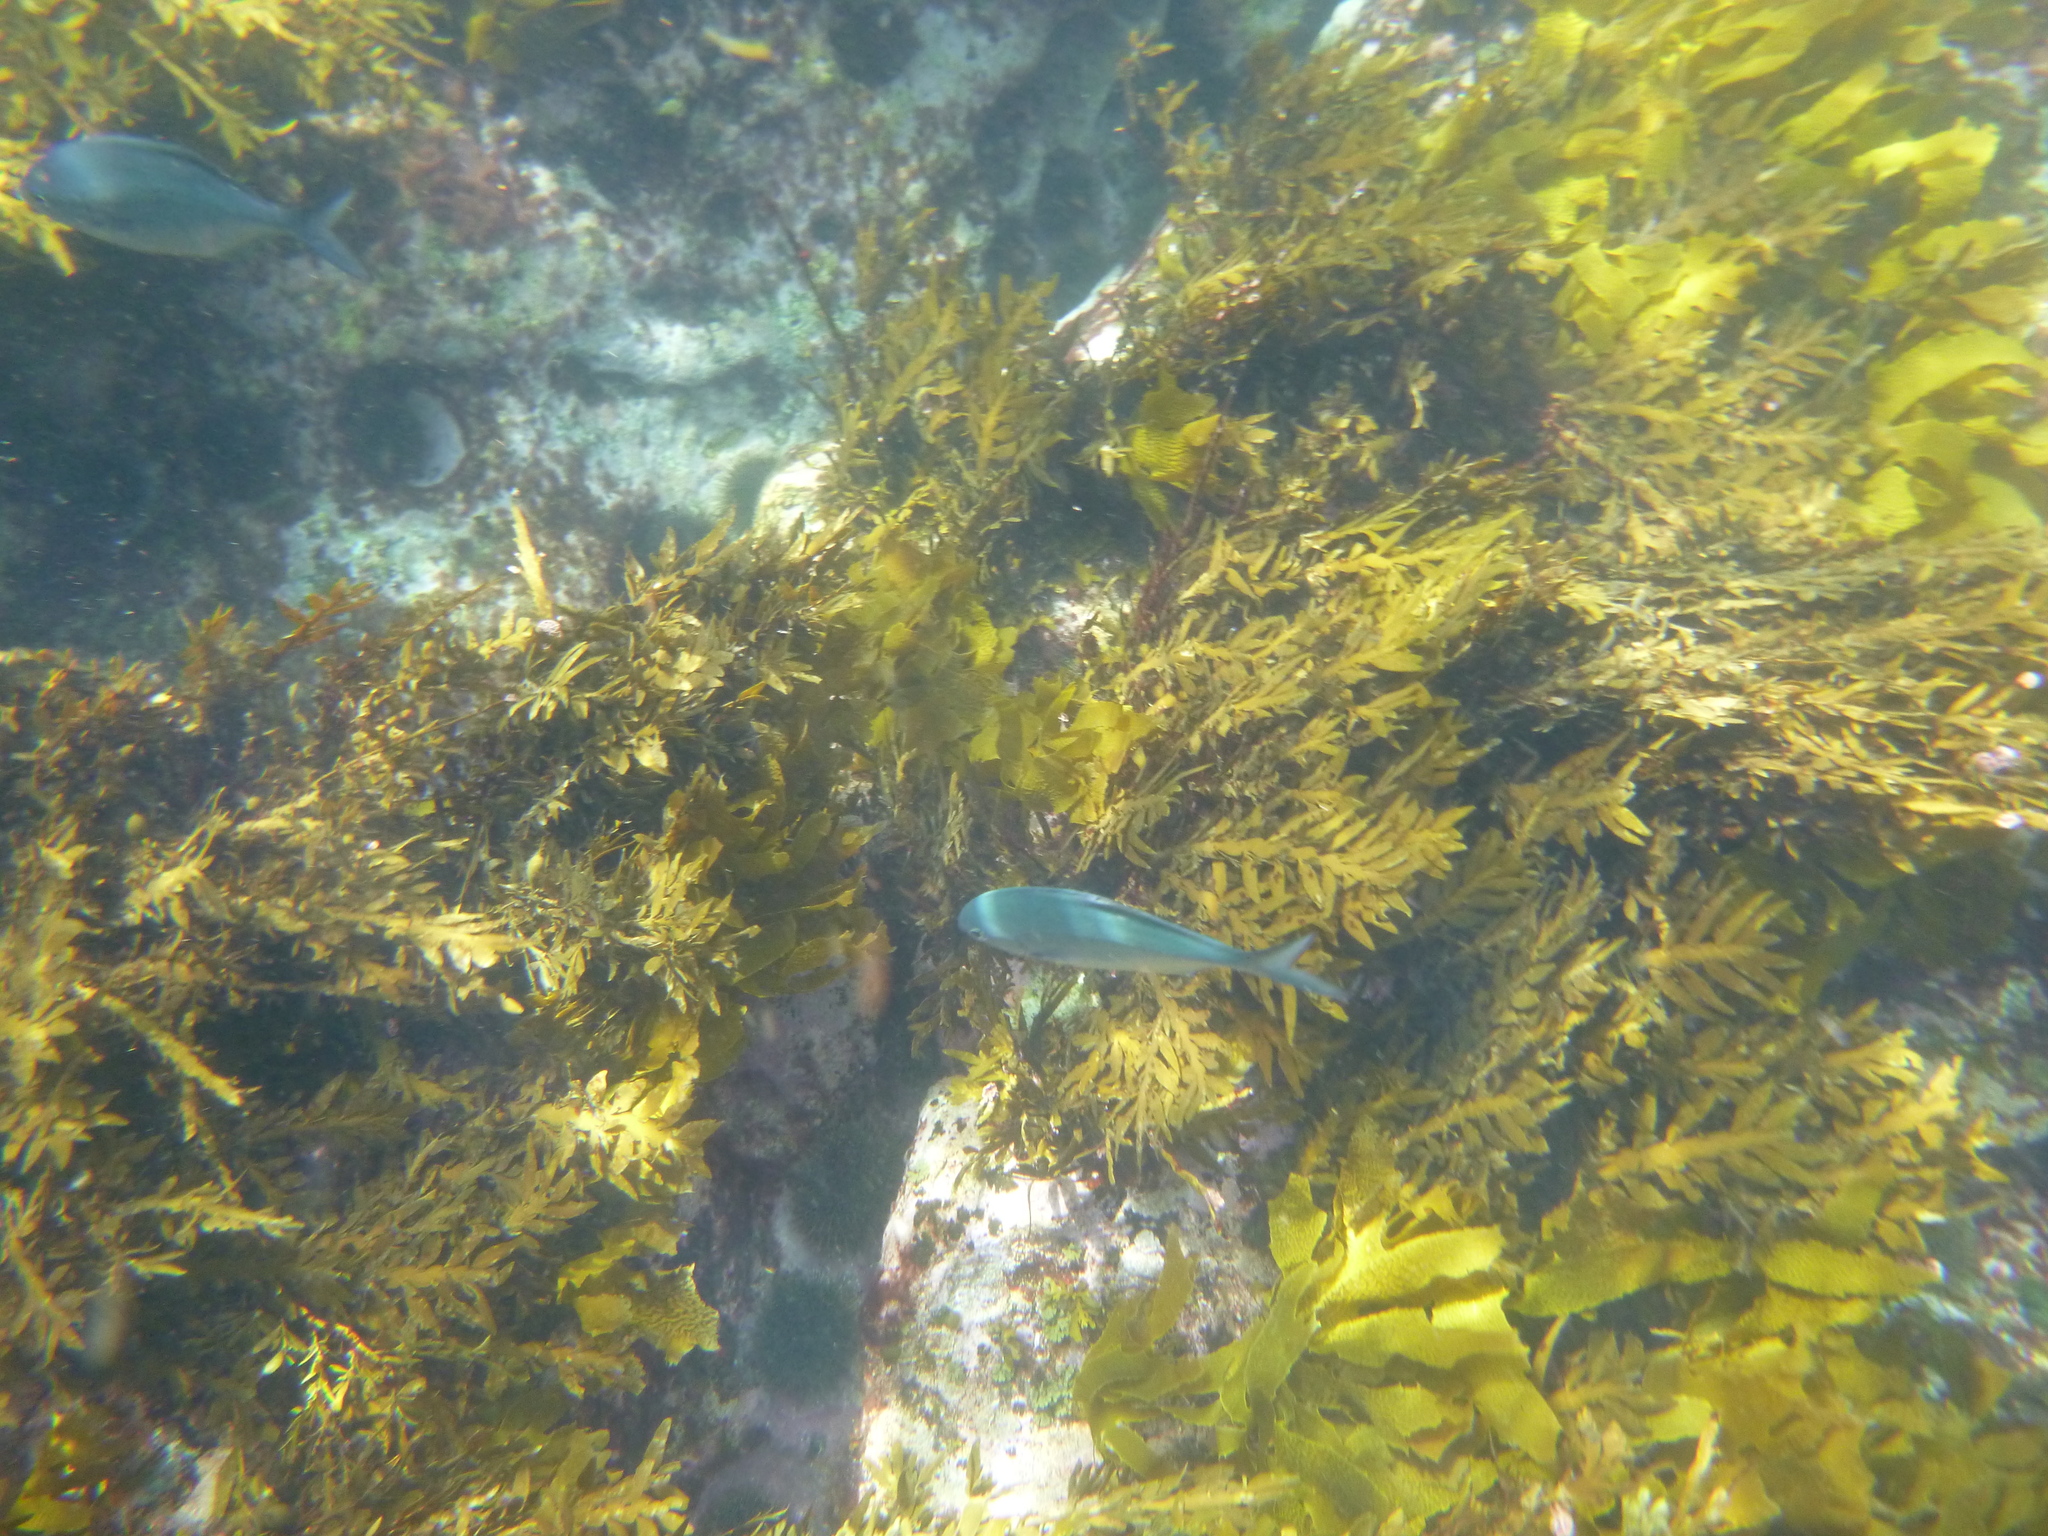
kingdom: Animalia
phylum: Chordata
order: Perciformes
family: Kyphosidae
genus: Scorpis
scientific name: Scorpis violacea
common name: Blue maomao
